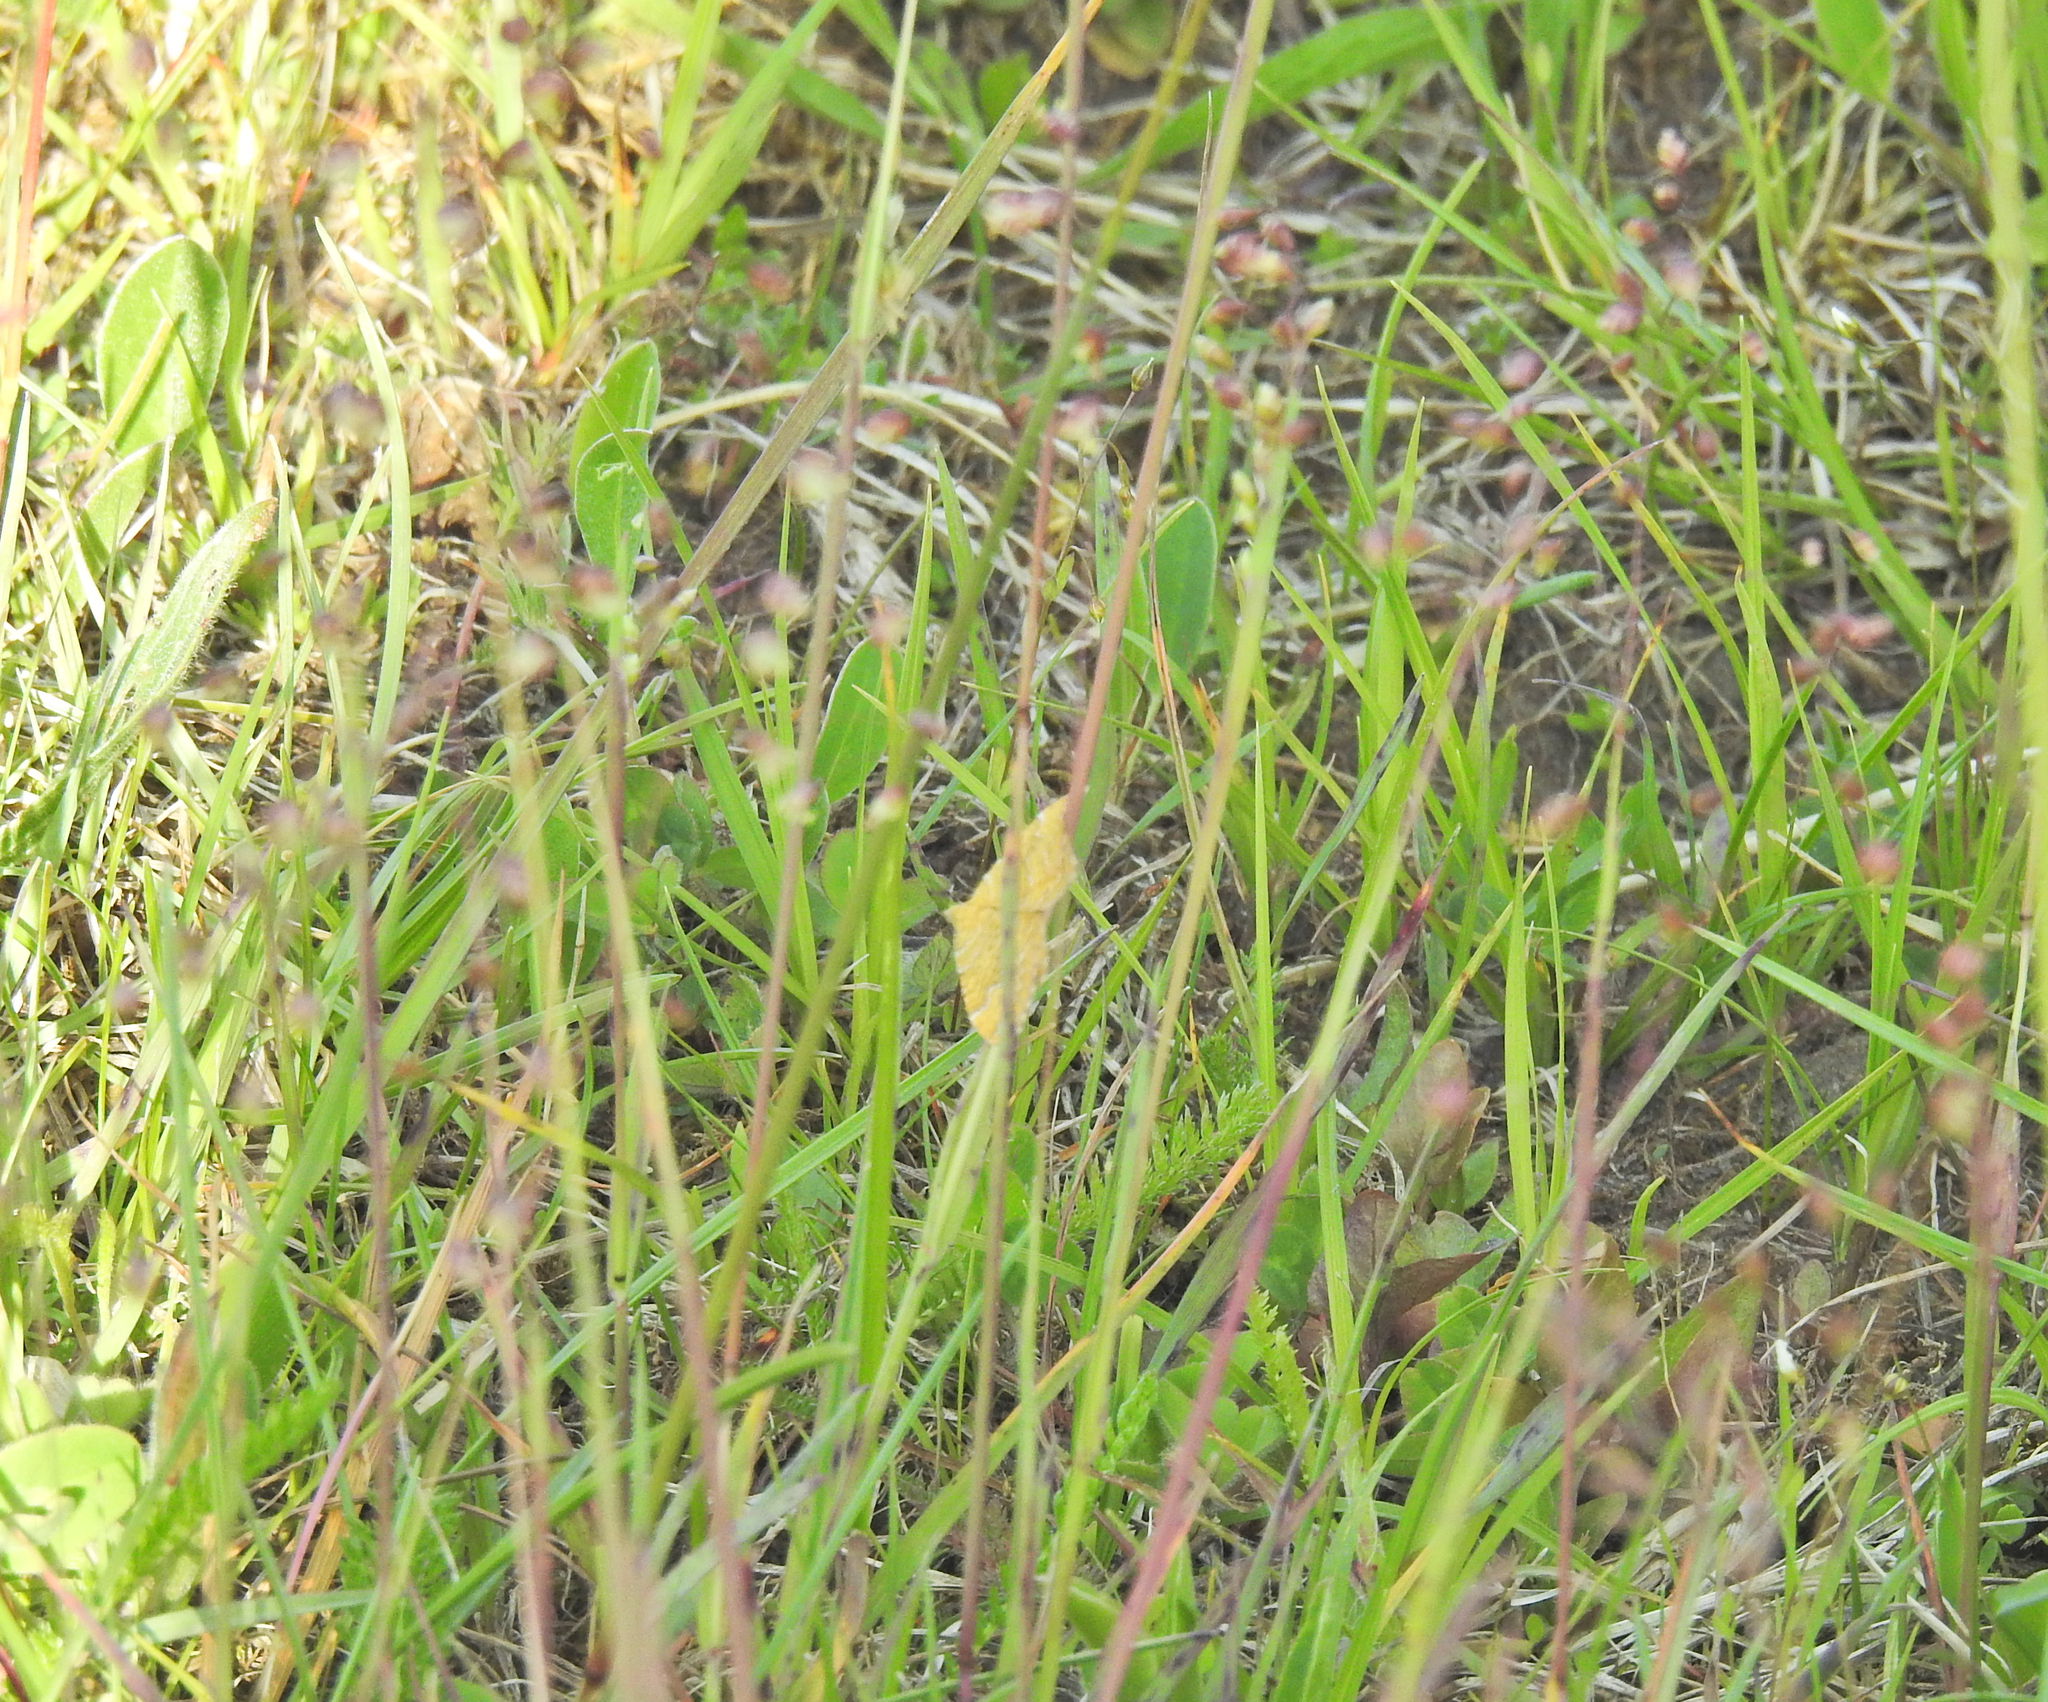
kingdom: Animalia
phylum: Arthropoda
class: Insecta
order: Lepidoptera
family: Geometridae
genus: Camptogramma
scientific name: Camptogramma bilineata
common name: Yellow shell
